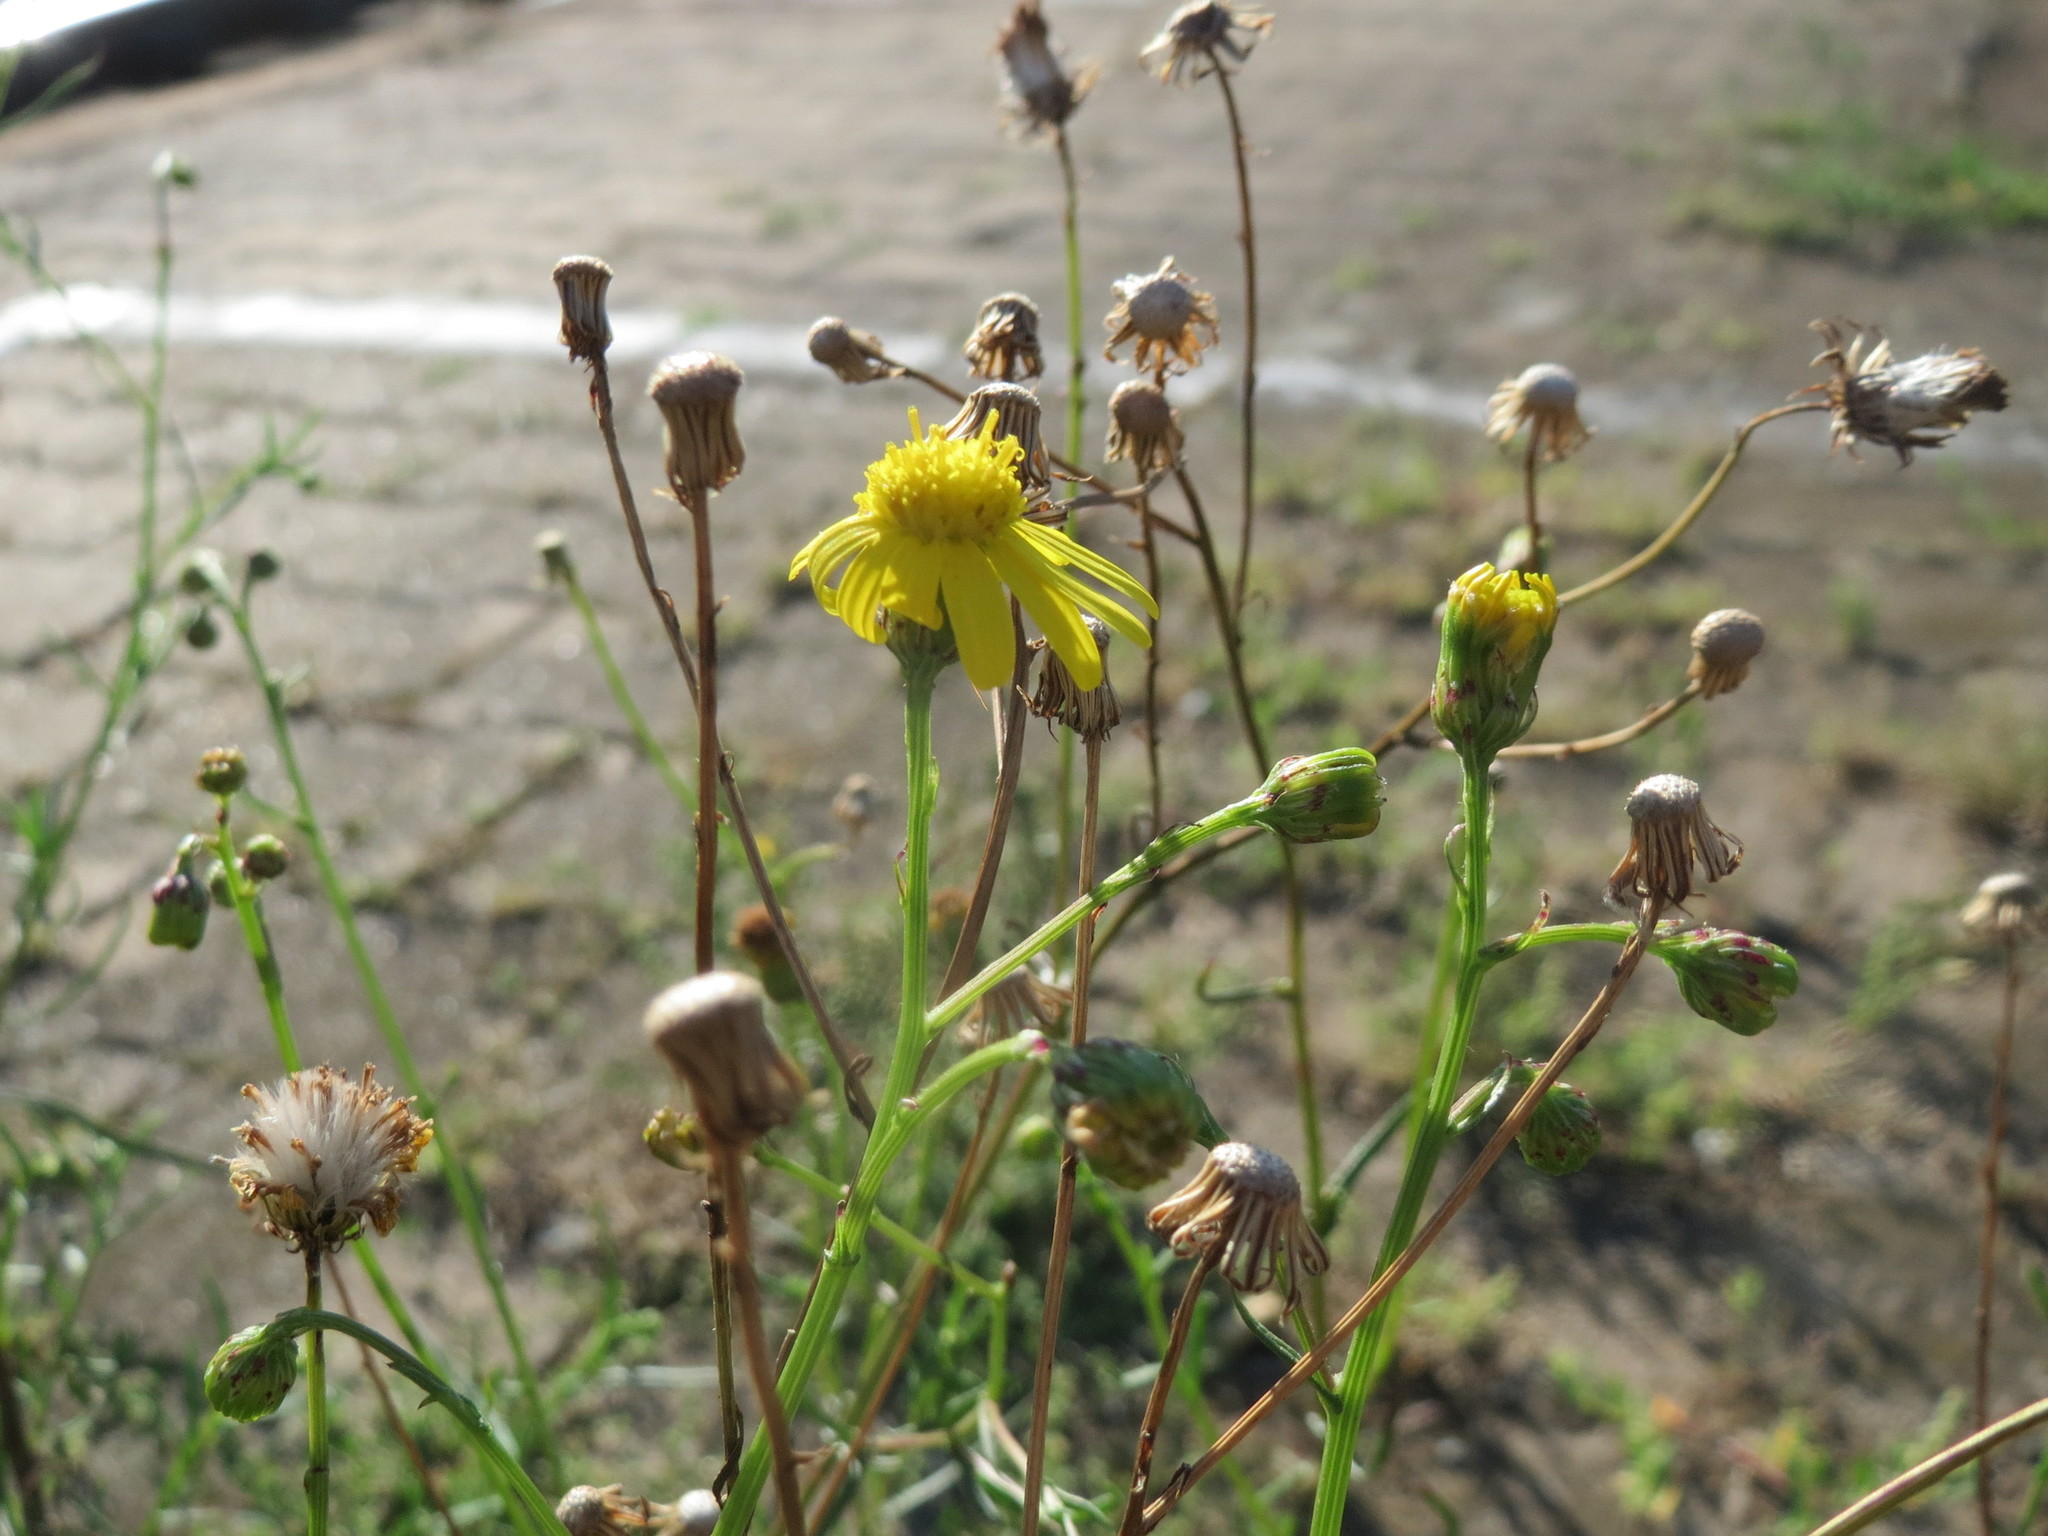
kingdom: Plantae
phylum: Tracheophyta
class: Magnoliopsida
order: Asterales
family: Asteraceae
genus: Senecio
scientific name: Senecio inaequidens
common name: Narrow-leaved ragwort
